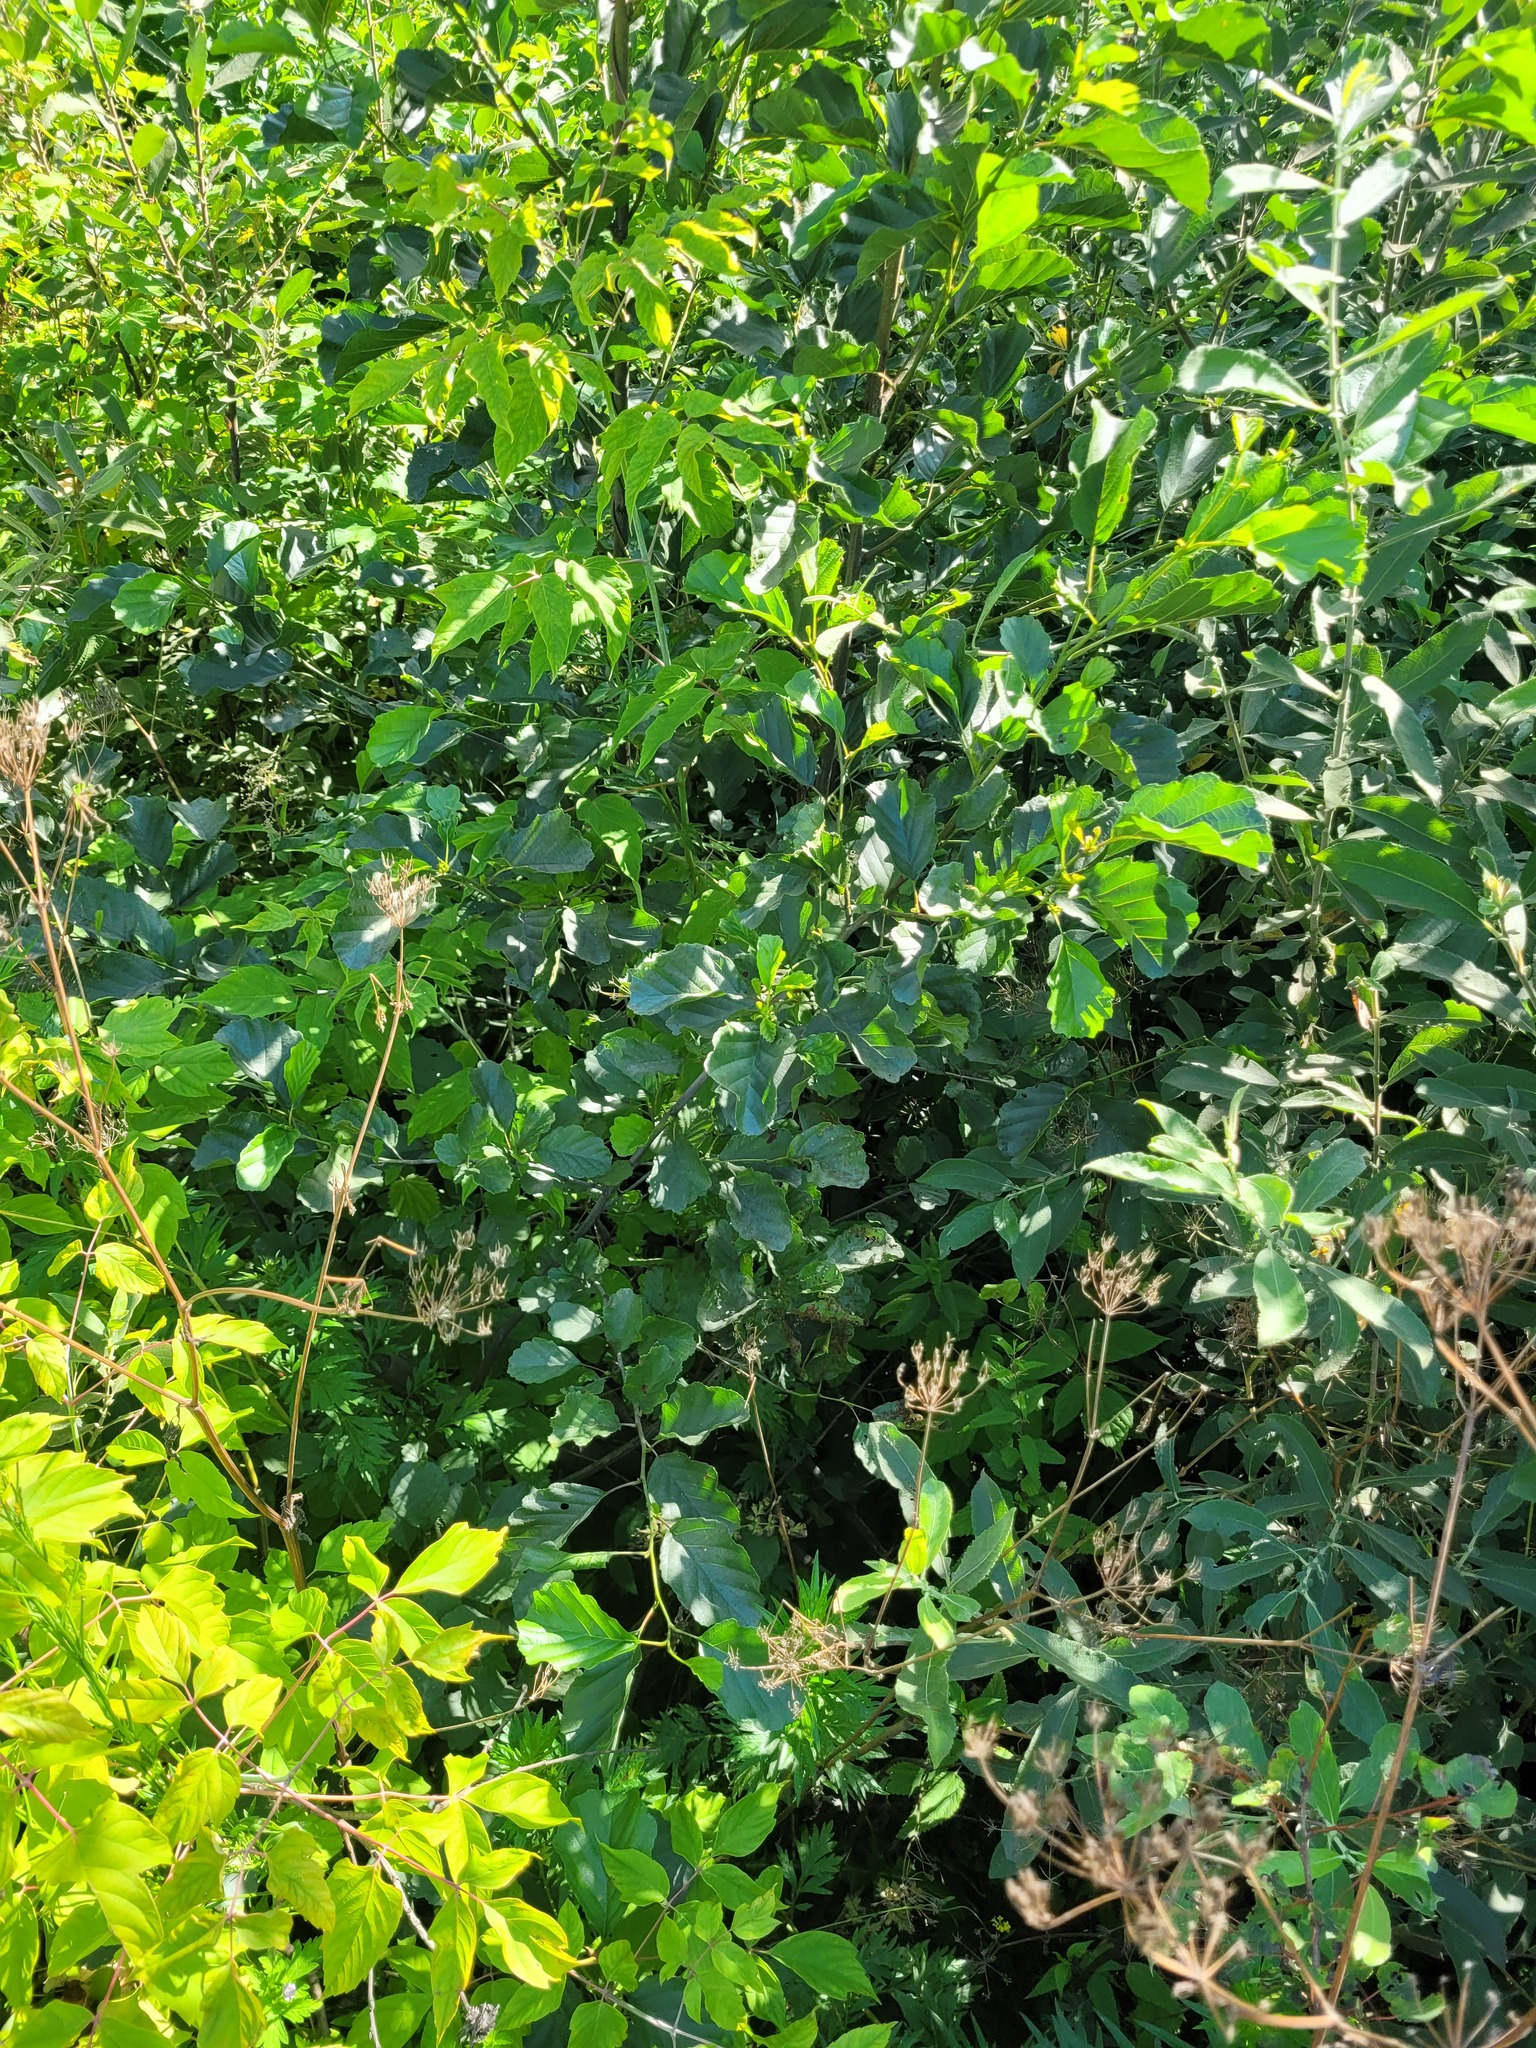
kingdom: Plantae
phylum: Tracheophyta
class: Magnoliopsida
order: Fagales
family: Betulaceae
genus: Alnus
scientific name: Alnus glutinosa
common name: Black alder
